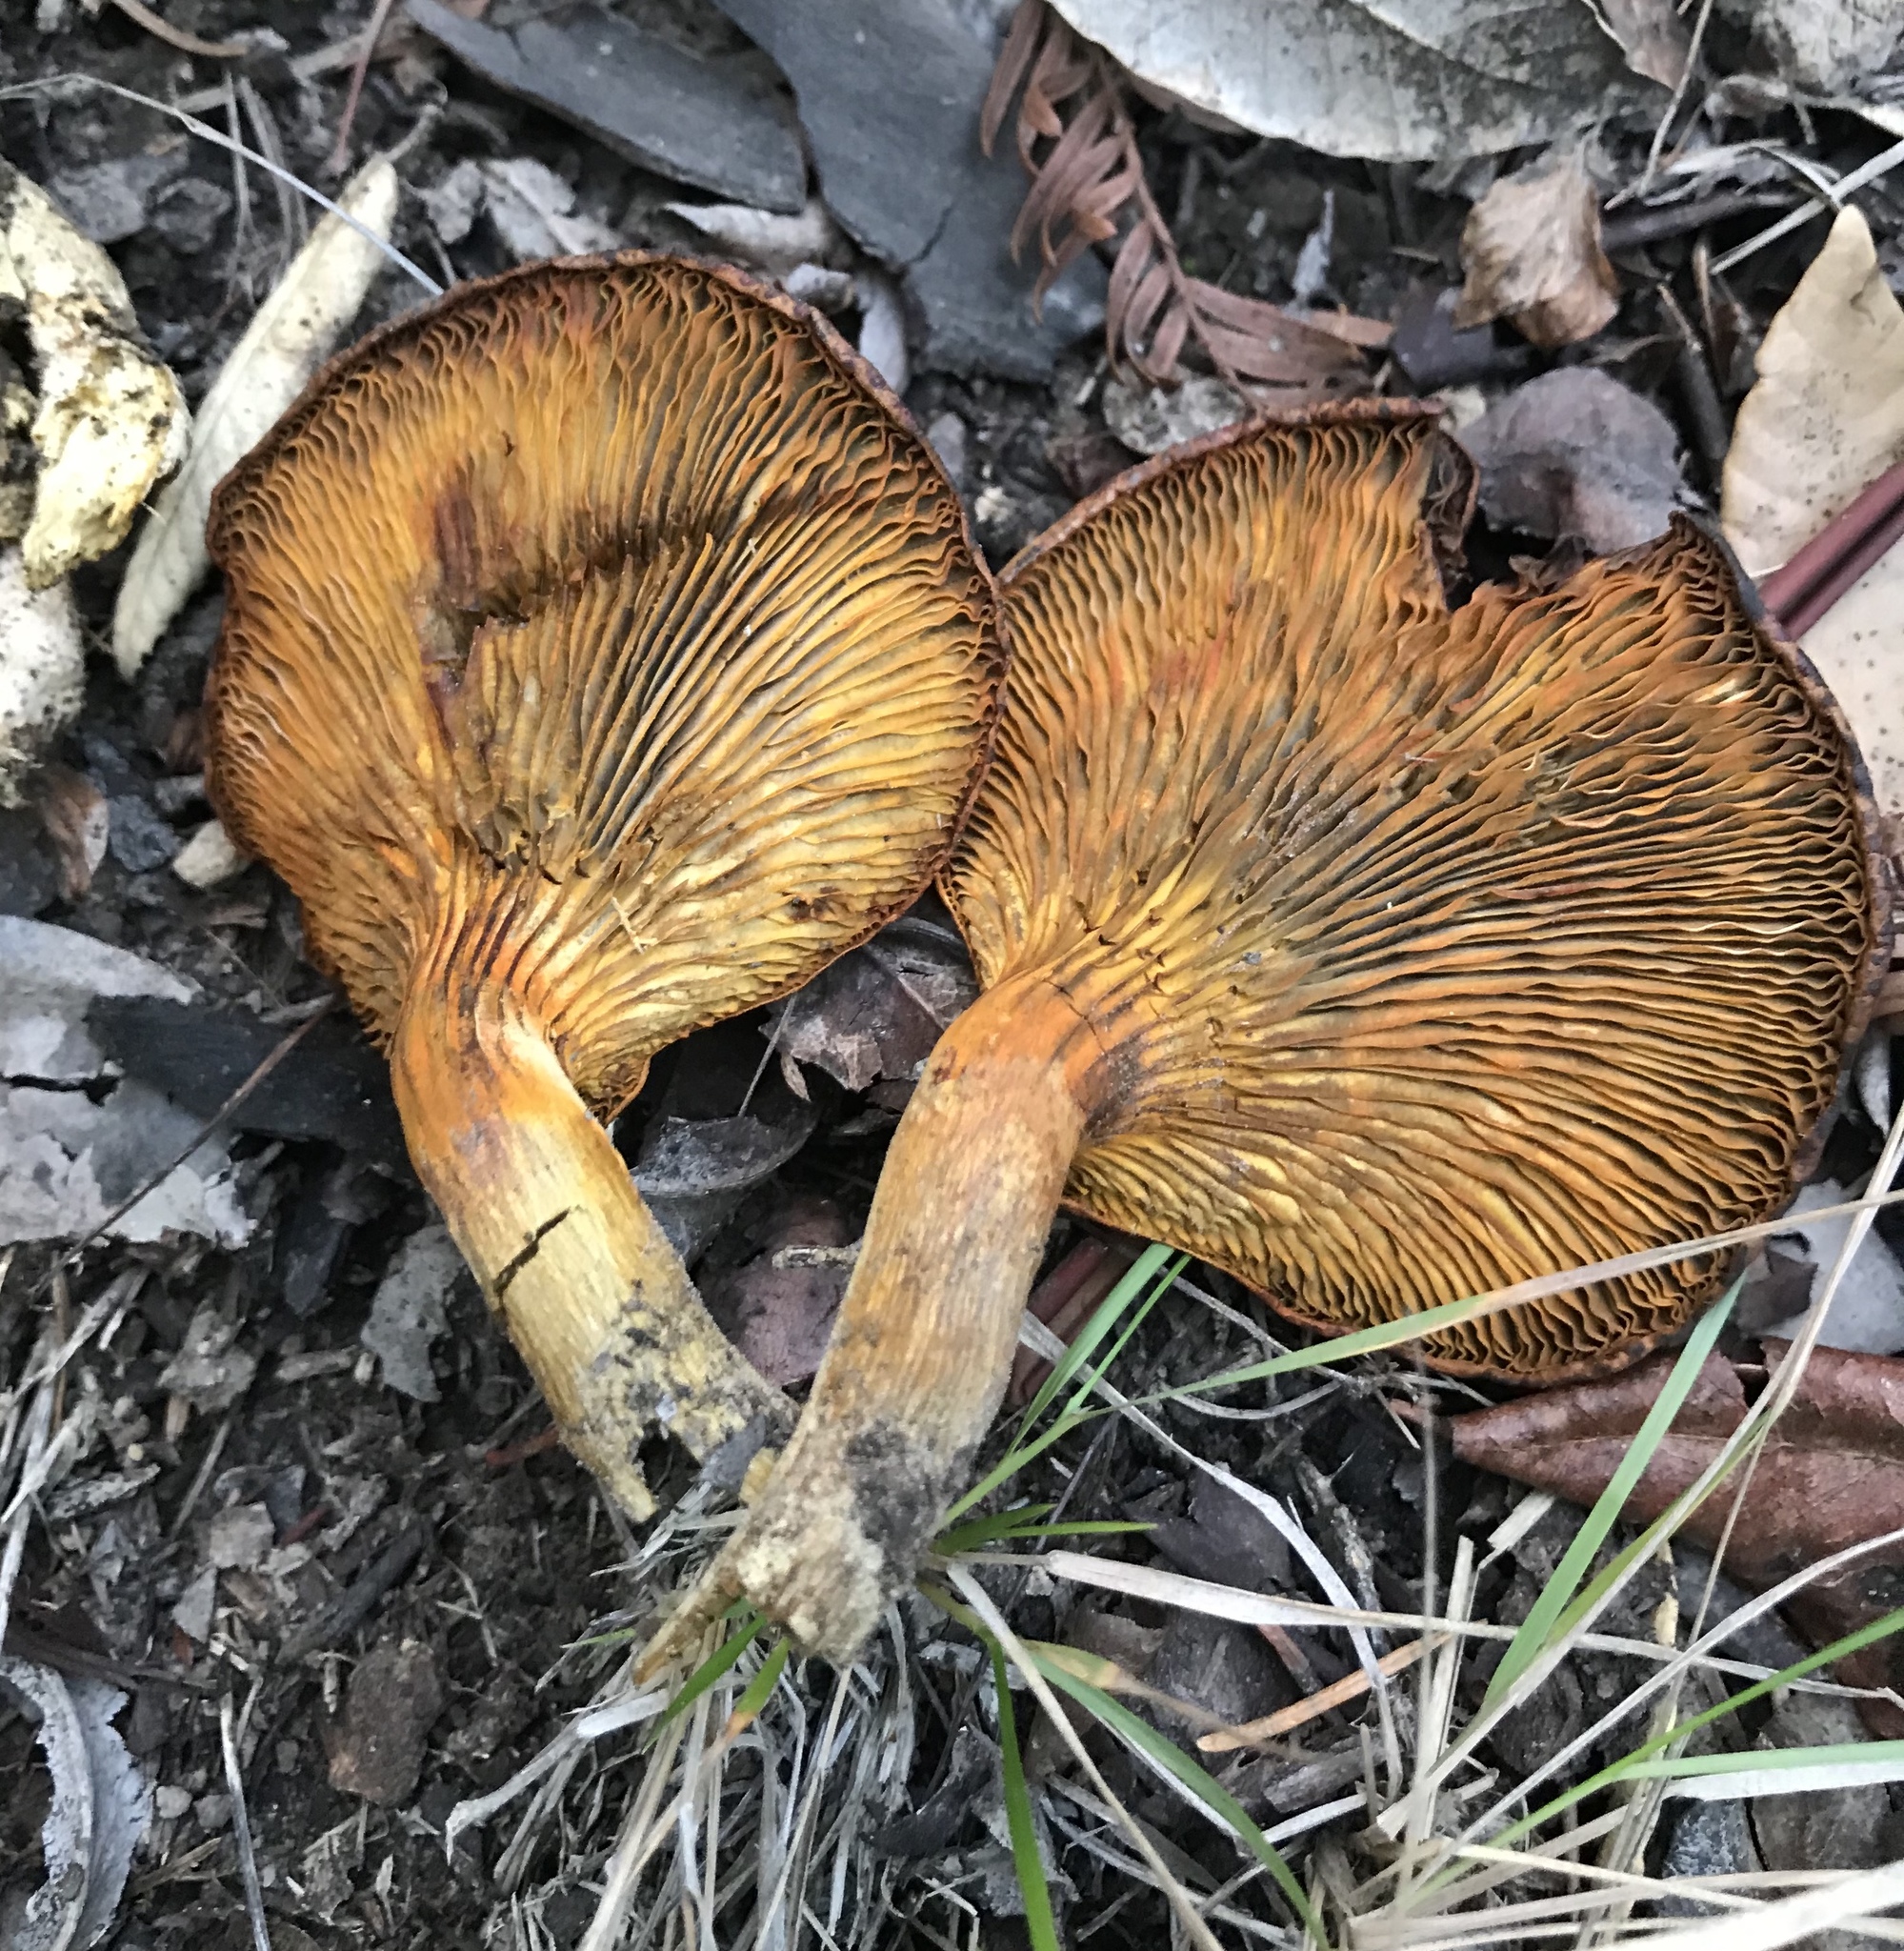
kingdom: Fungi
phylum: Basidiomycota
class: Agaricomycetes
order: Agaricales
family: Omphalotaceae
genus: Omphalotus
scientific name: Omphalotus olivascens
